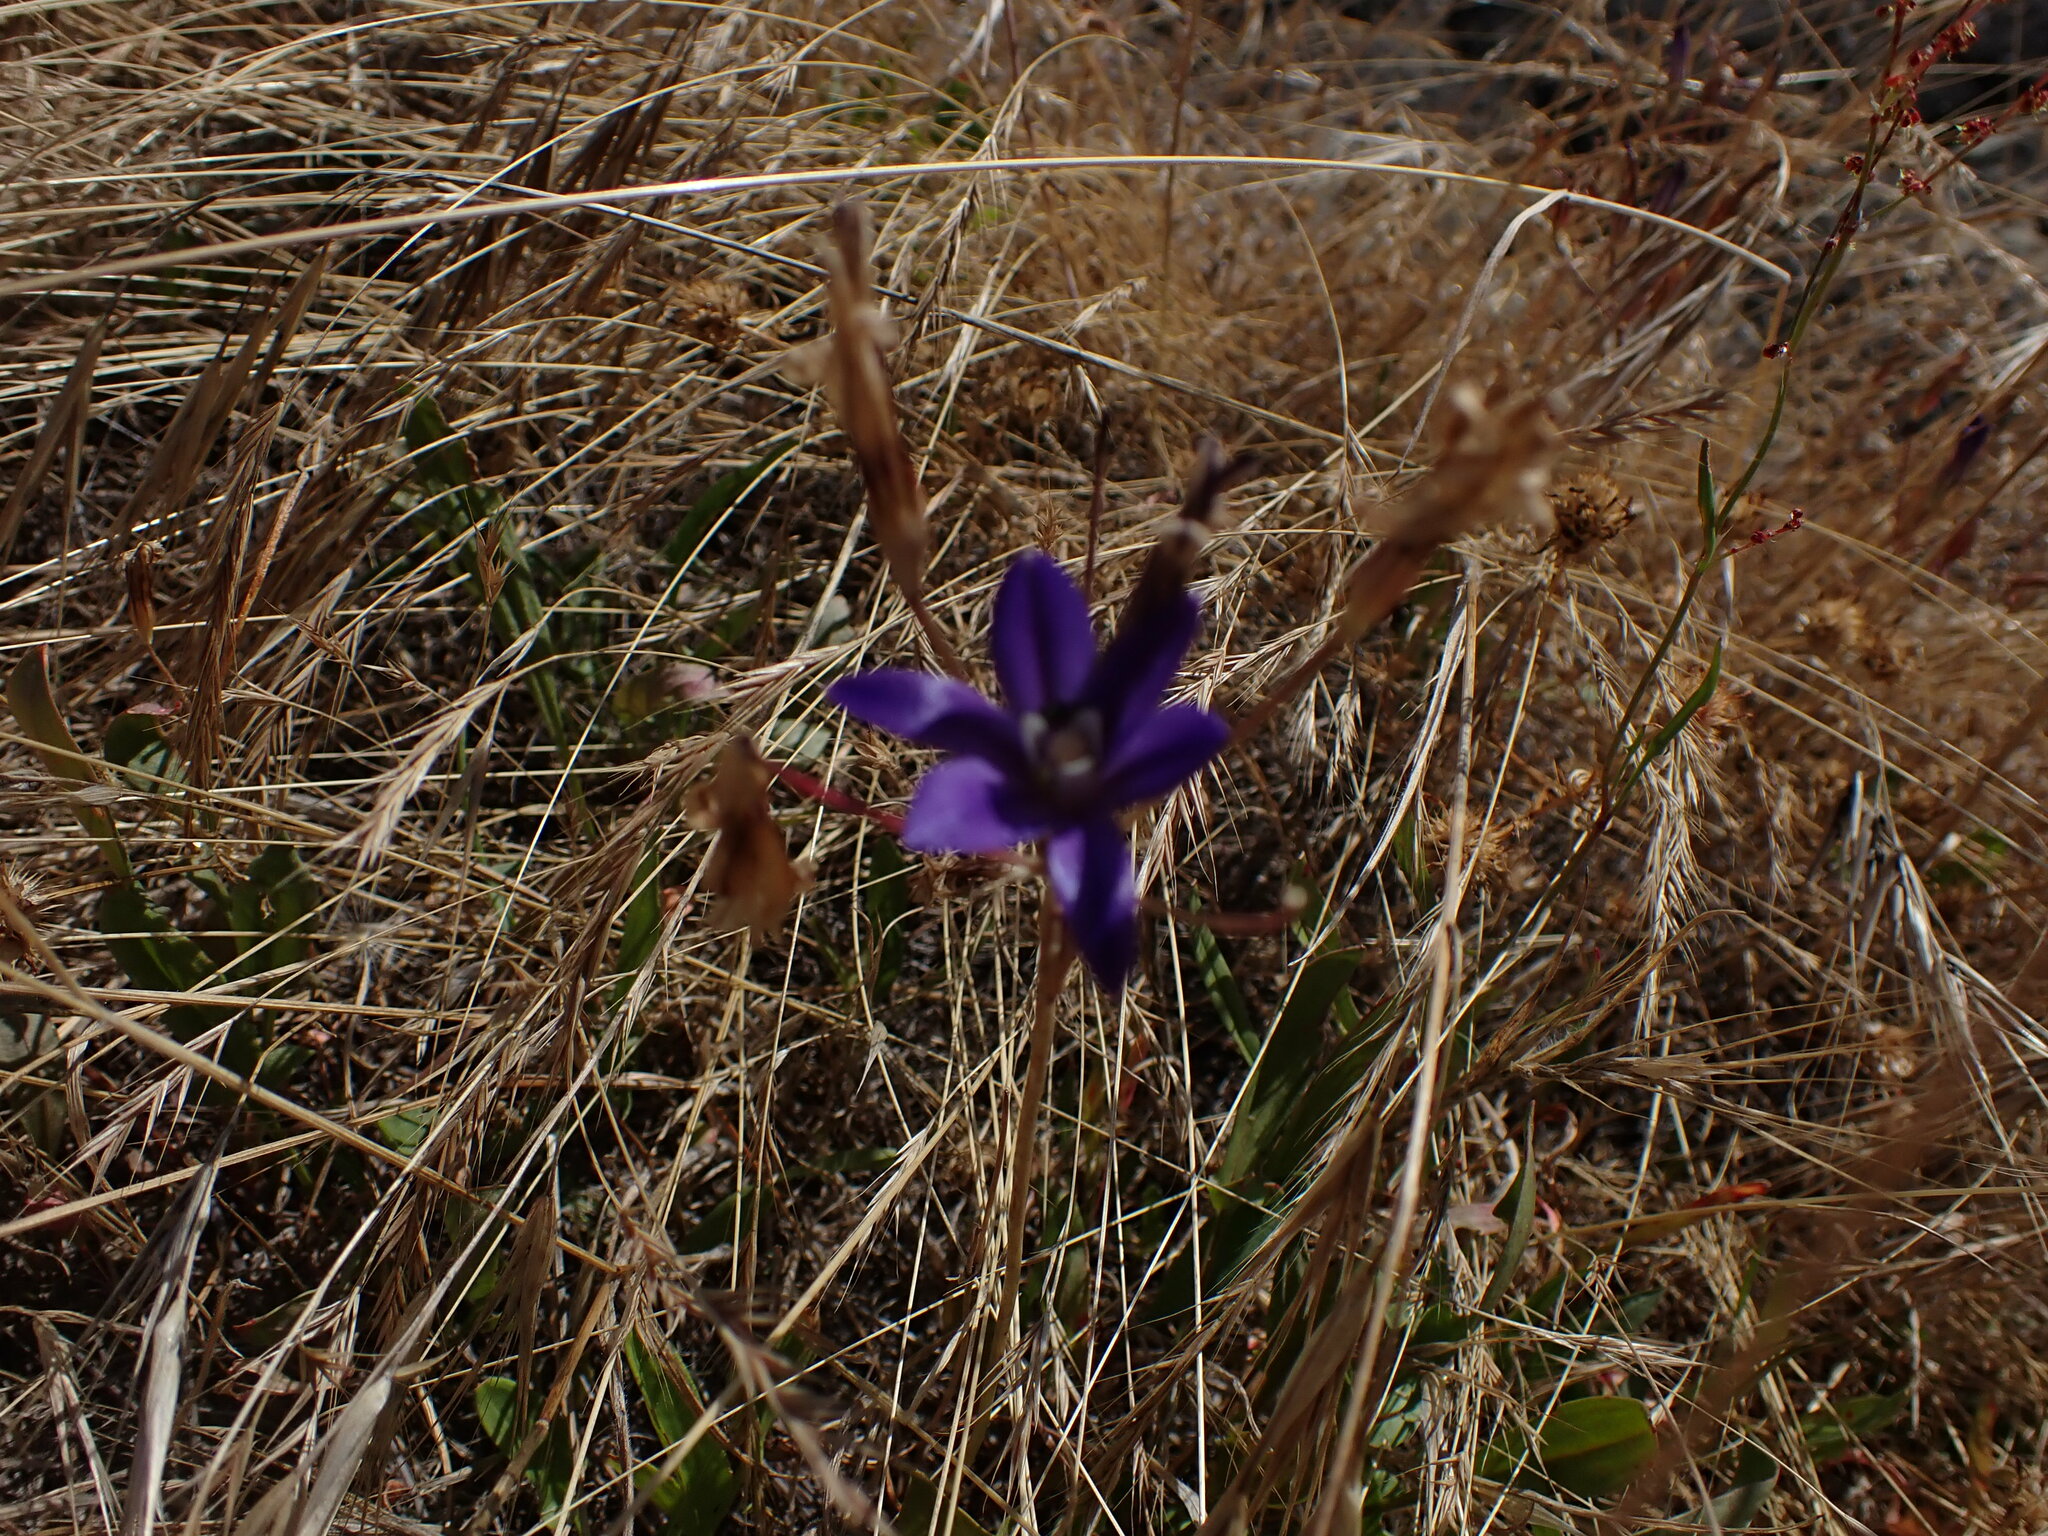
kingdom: Plantae
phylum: Tracheophyta
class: Liliopsida
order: Asparagales
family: Asparagaceae
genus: Brodiaea
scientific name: Brodiaea coronaria
